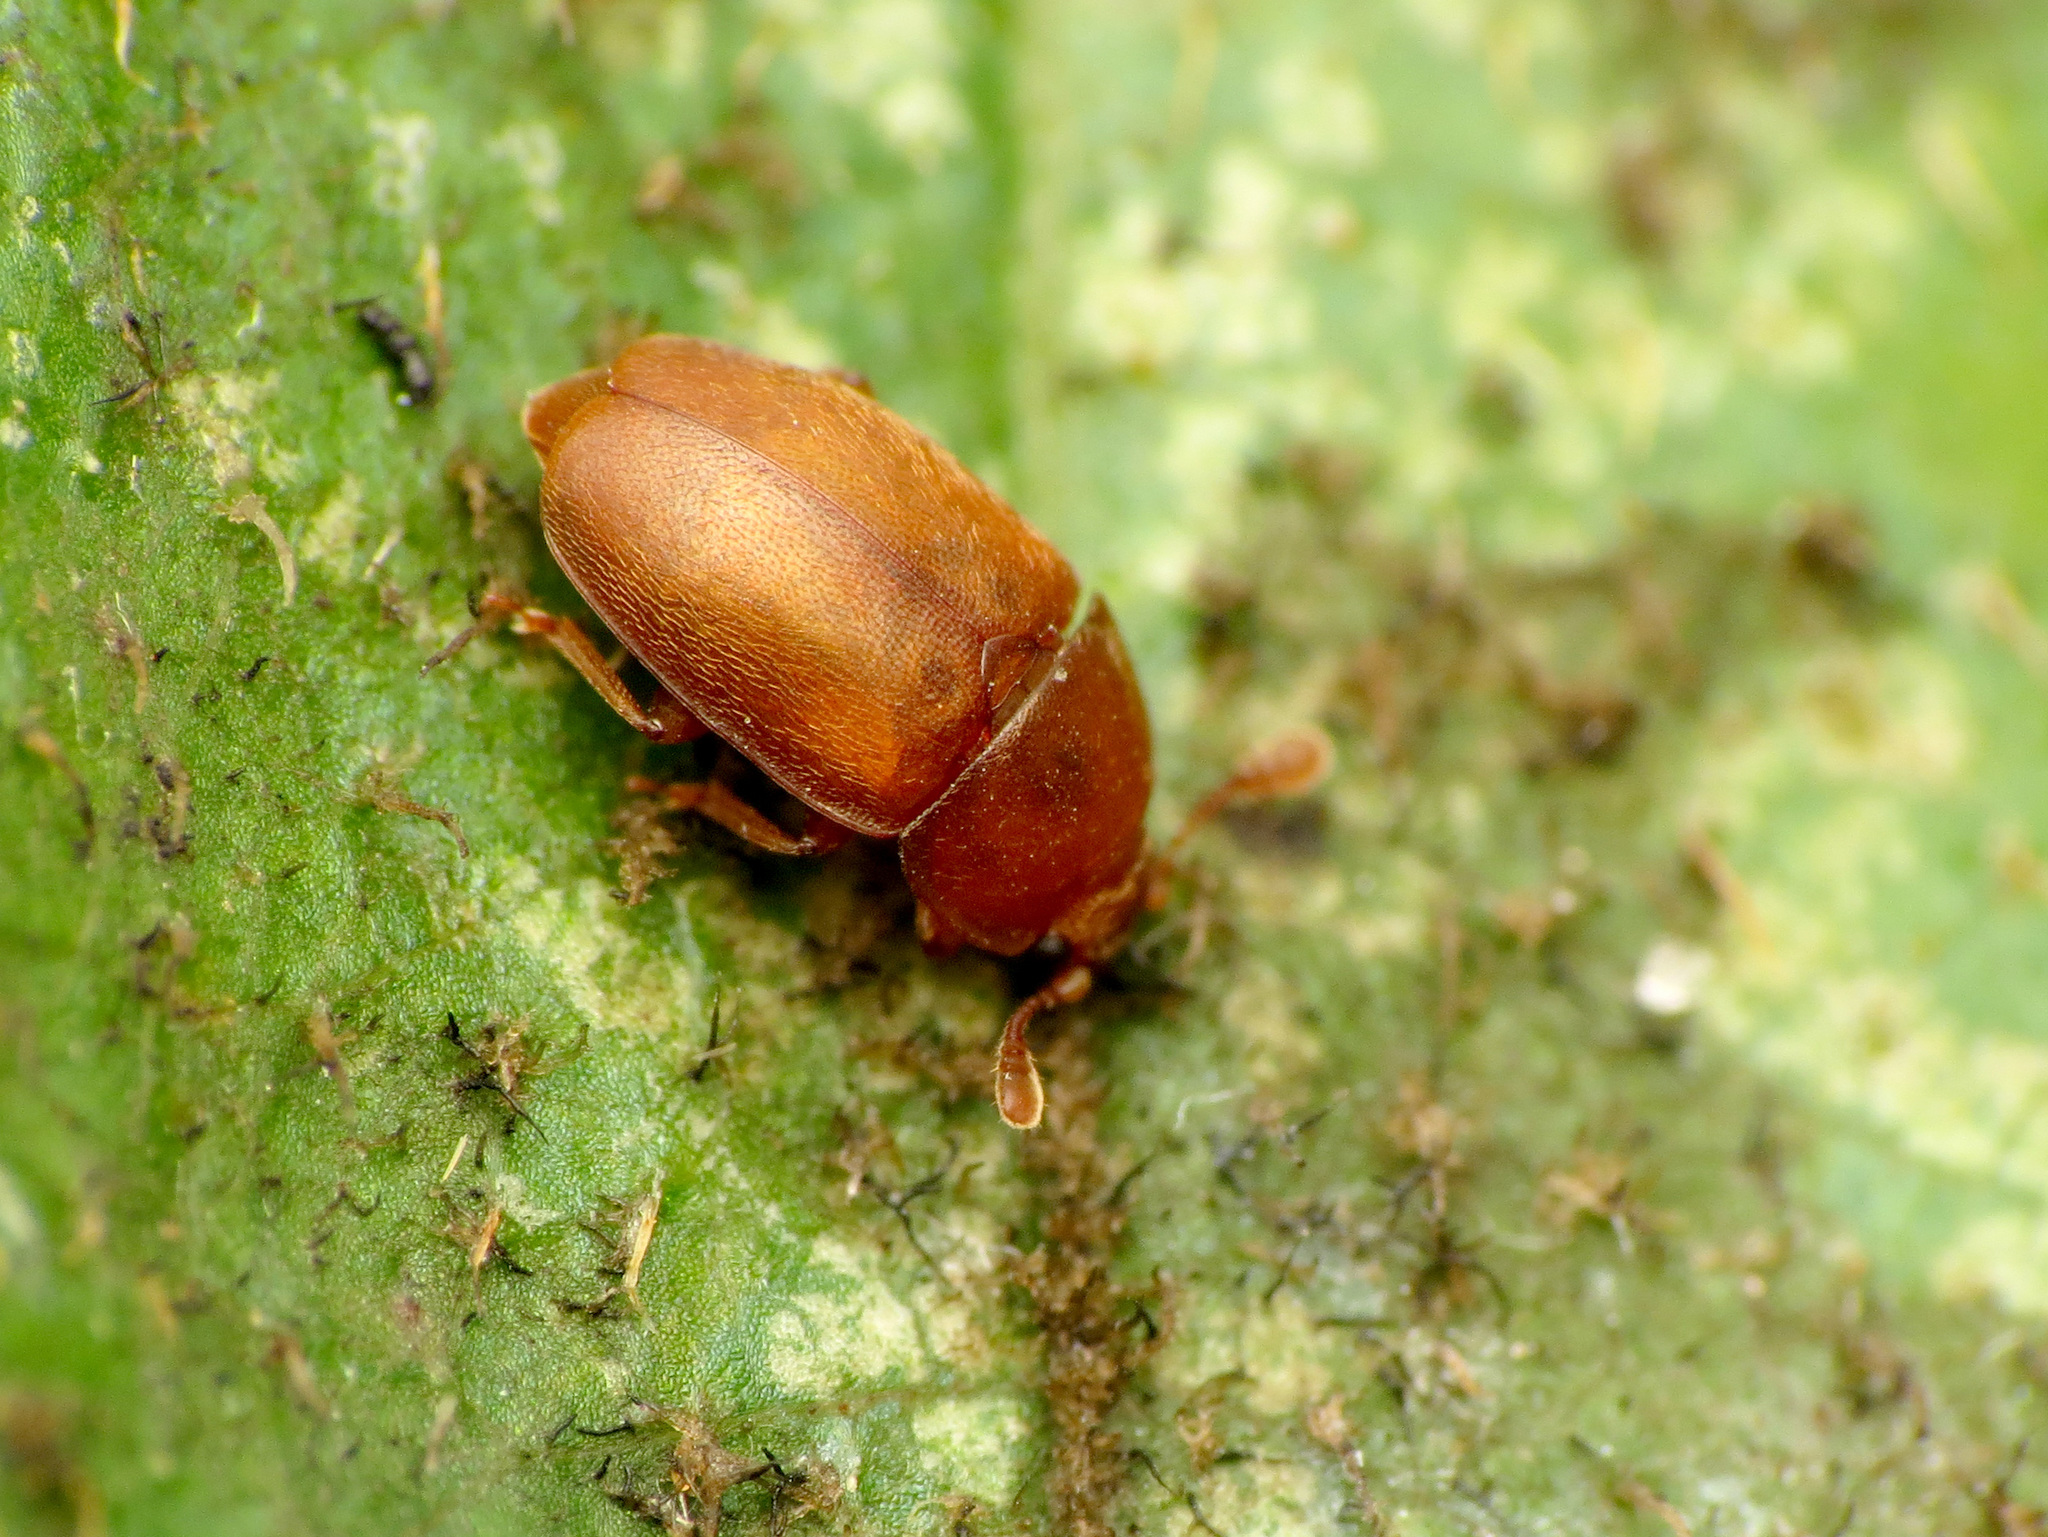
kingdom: Animalia
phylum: Arthropoda
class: Insecta
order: Coleoptera
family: Nitidulidae
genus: Epuraea
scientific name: Epuraea aestiva
